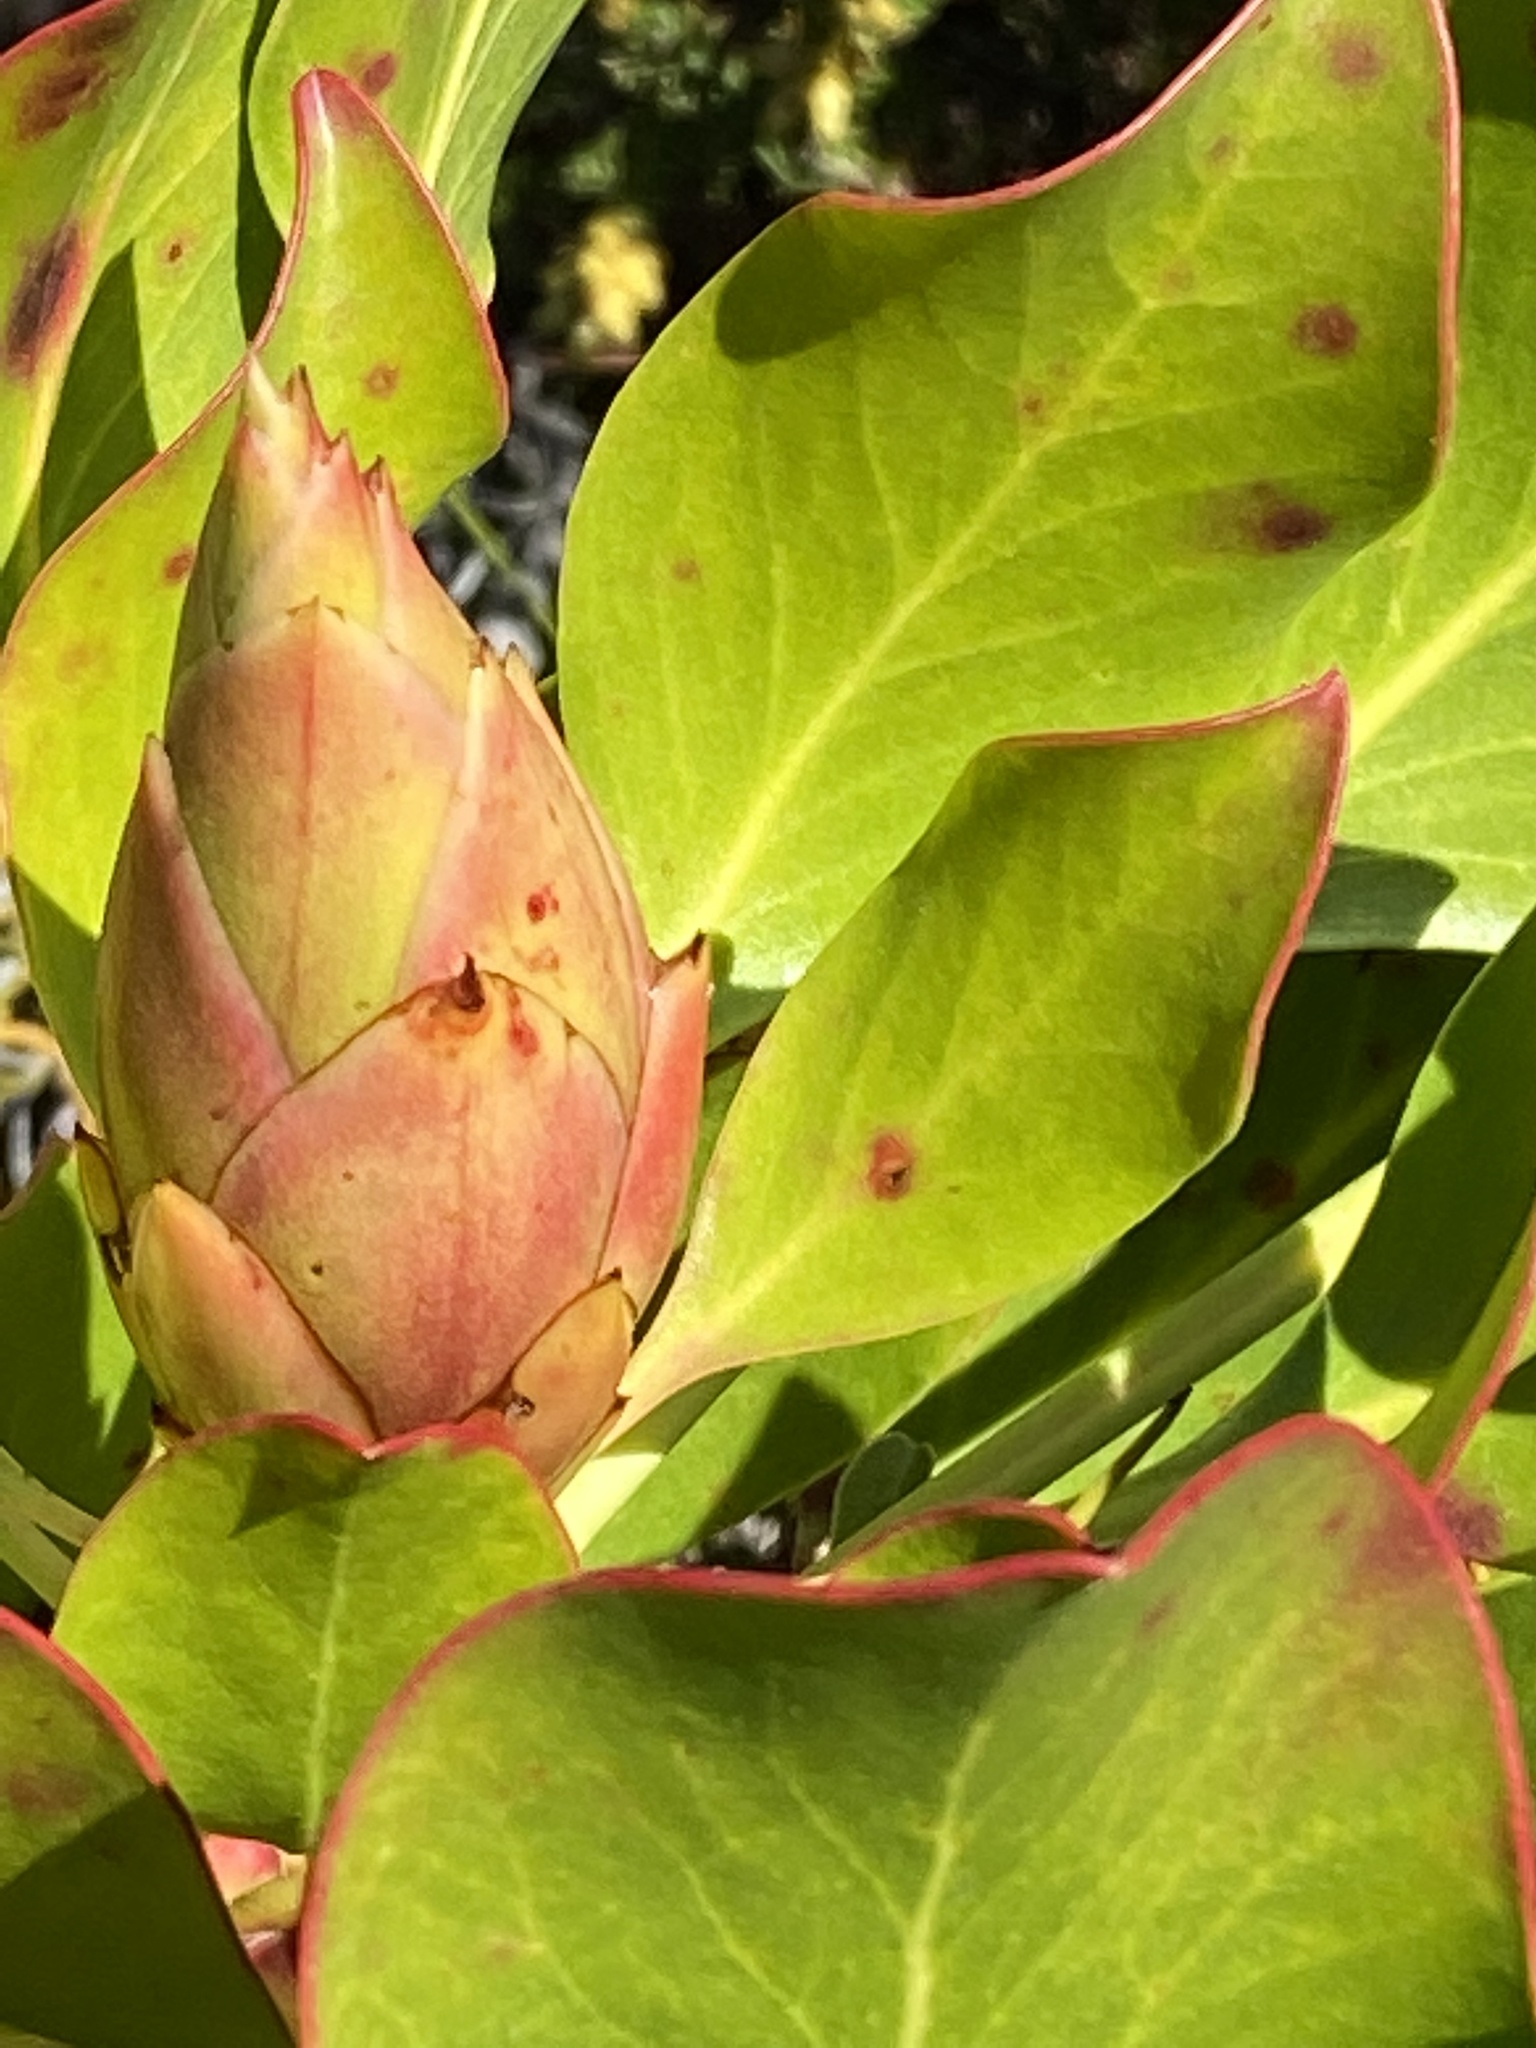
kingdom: Plantae
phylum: Tracheophyta
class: Magnoliopsida
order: Proteales
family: Proteaceae
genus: Protea
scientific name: Protea cynaroides
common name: King protea
